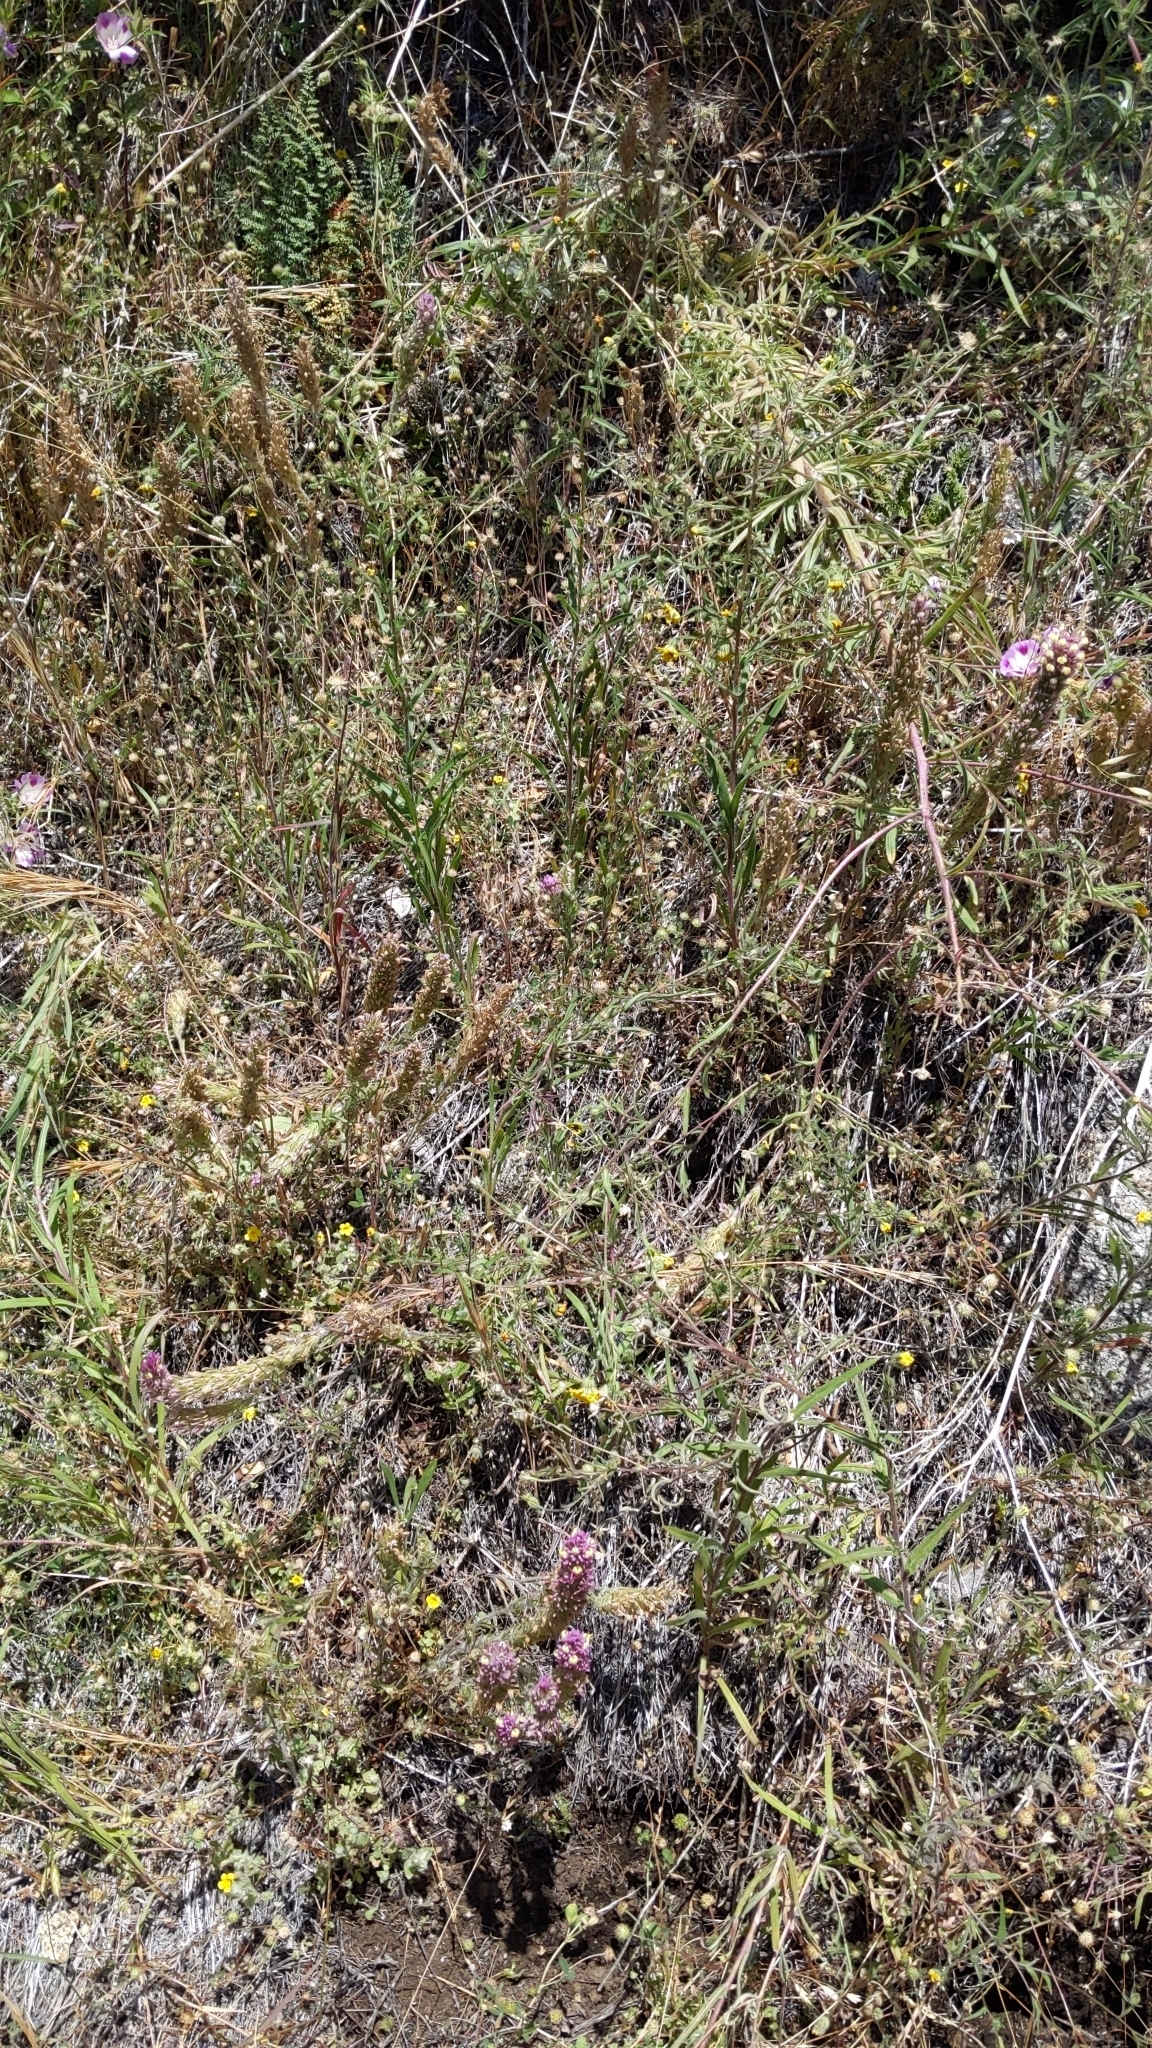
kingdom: Plantae
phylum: Tracheophyta
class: Magnoliopsida
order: Lamiales
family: Orobanchaceae
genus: Castilleja
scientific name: Castilleja lineariloba
